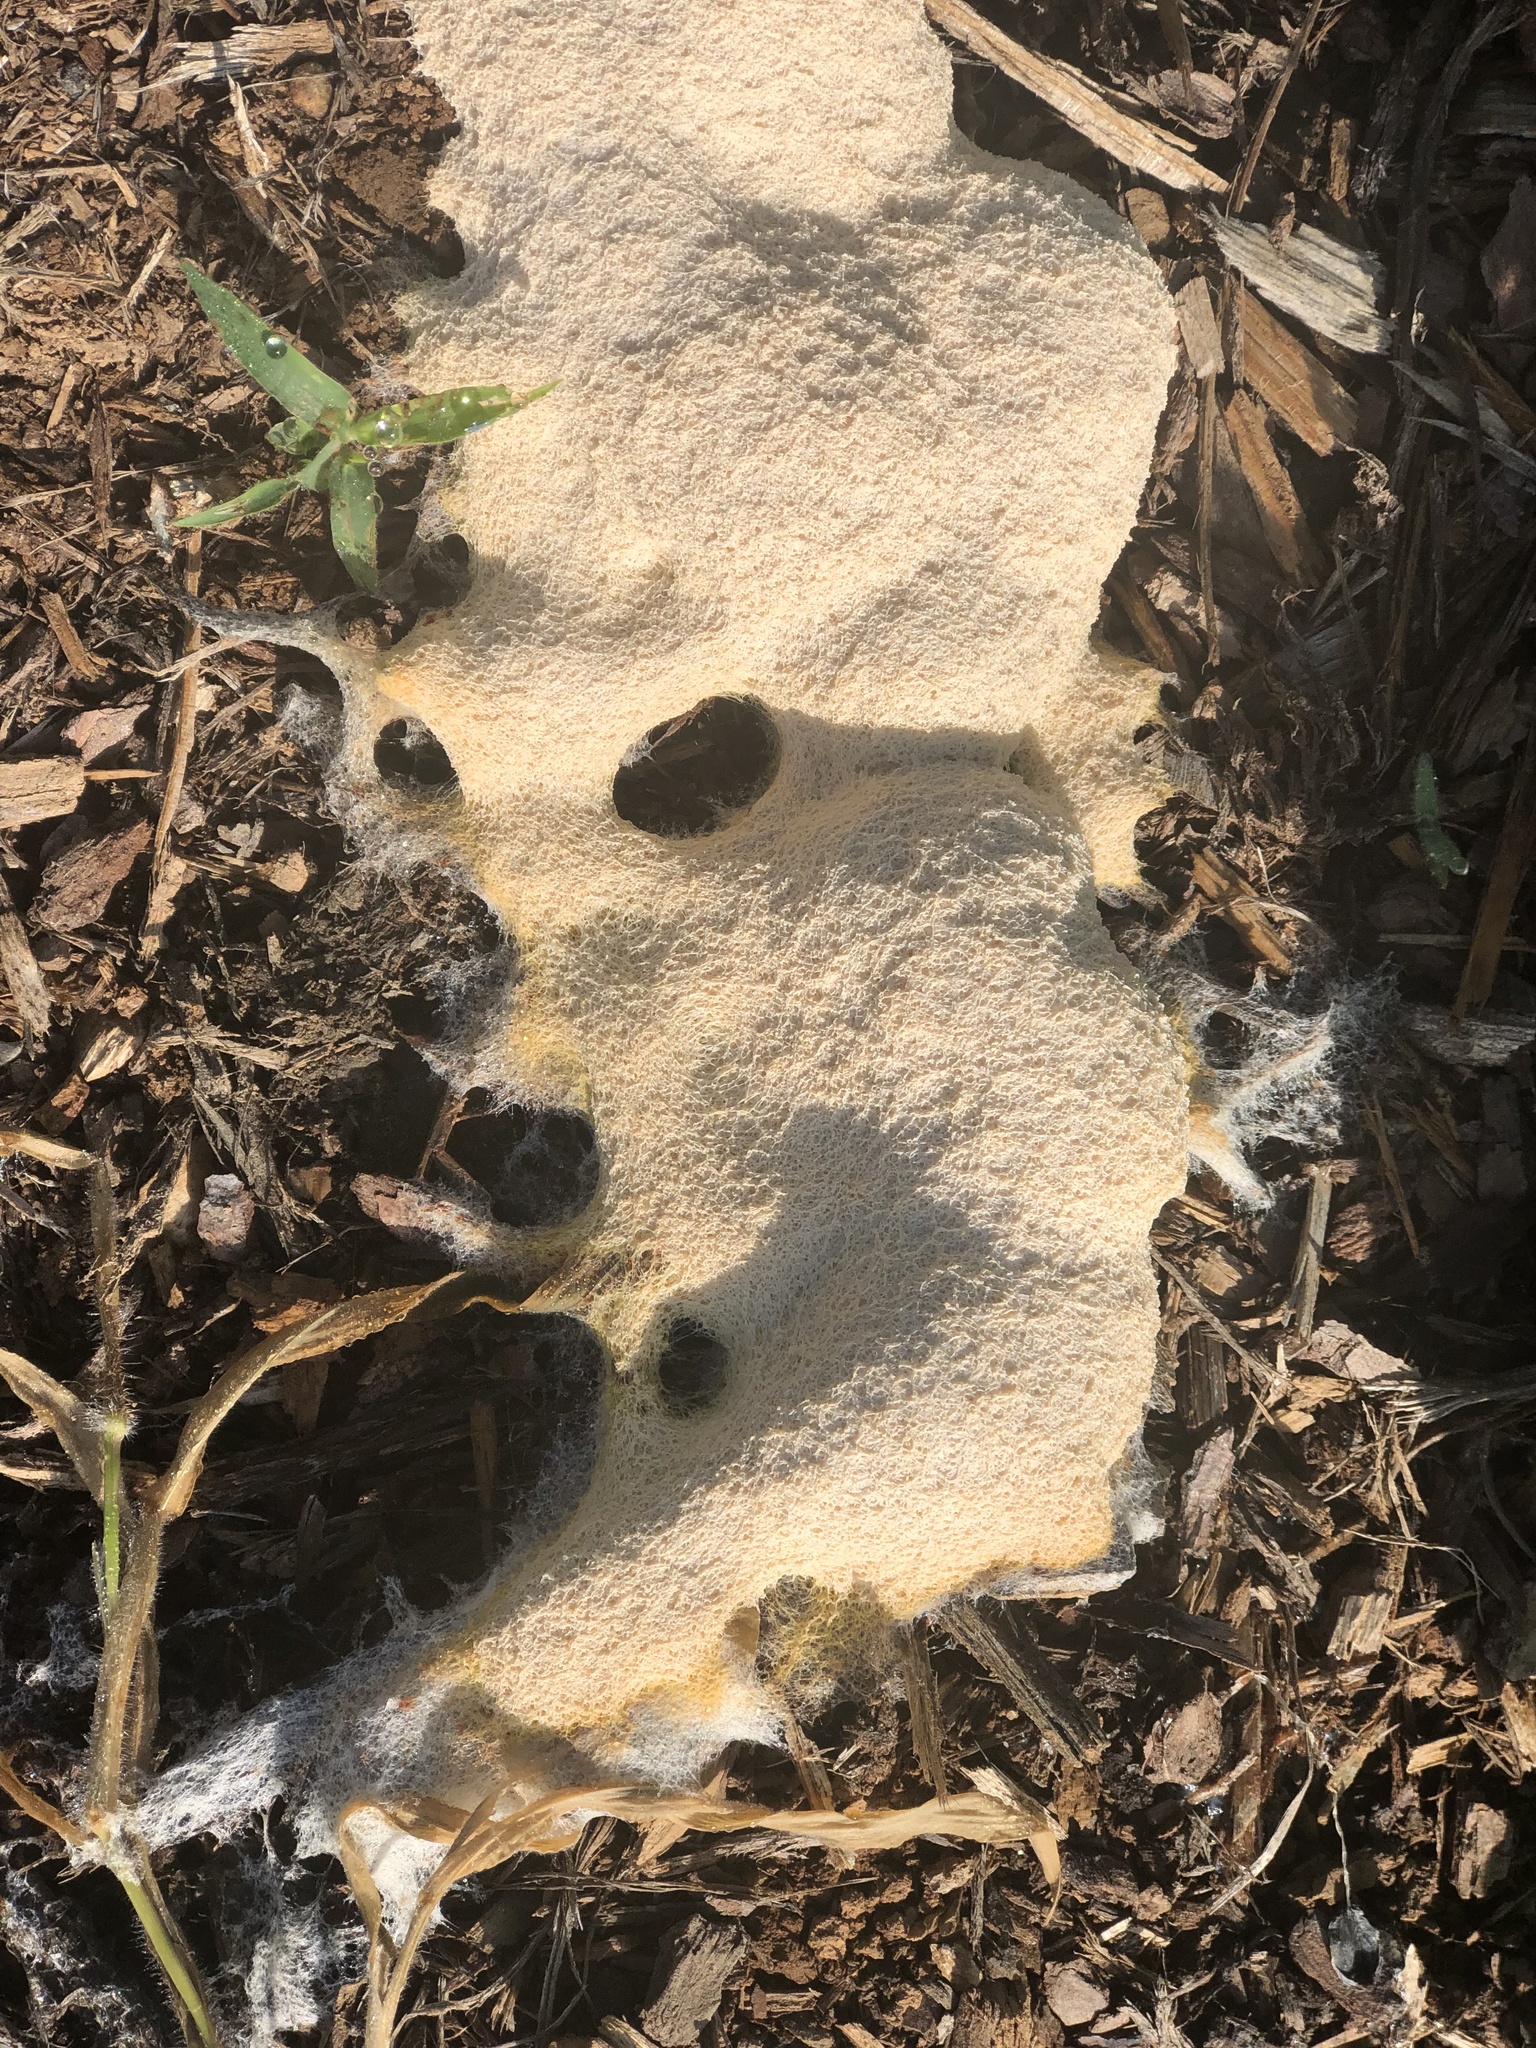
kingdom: Protozoa
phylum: Mycetozoa
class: Myxomycetes
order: Physarales
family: Physaraceae
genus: Fuligo
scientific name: Fuligo septica
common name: Dog vomit slime mold
